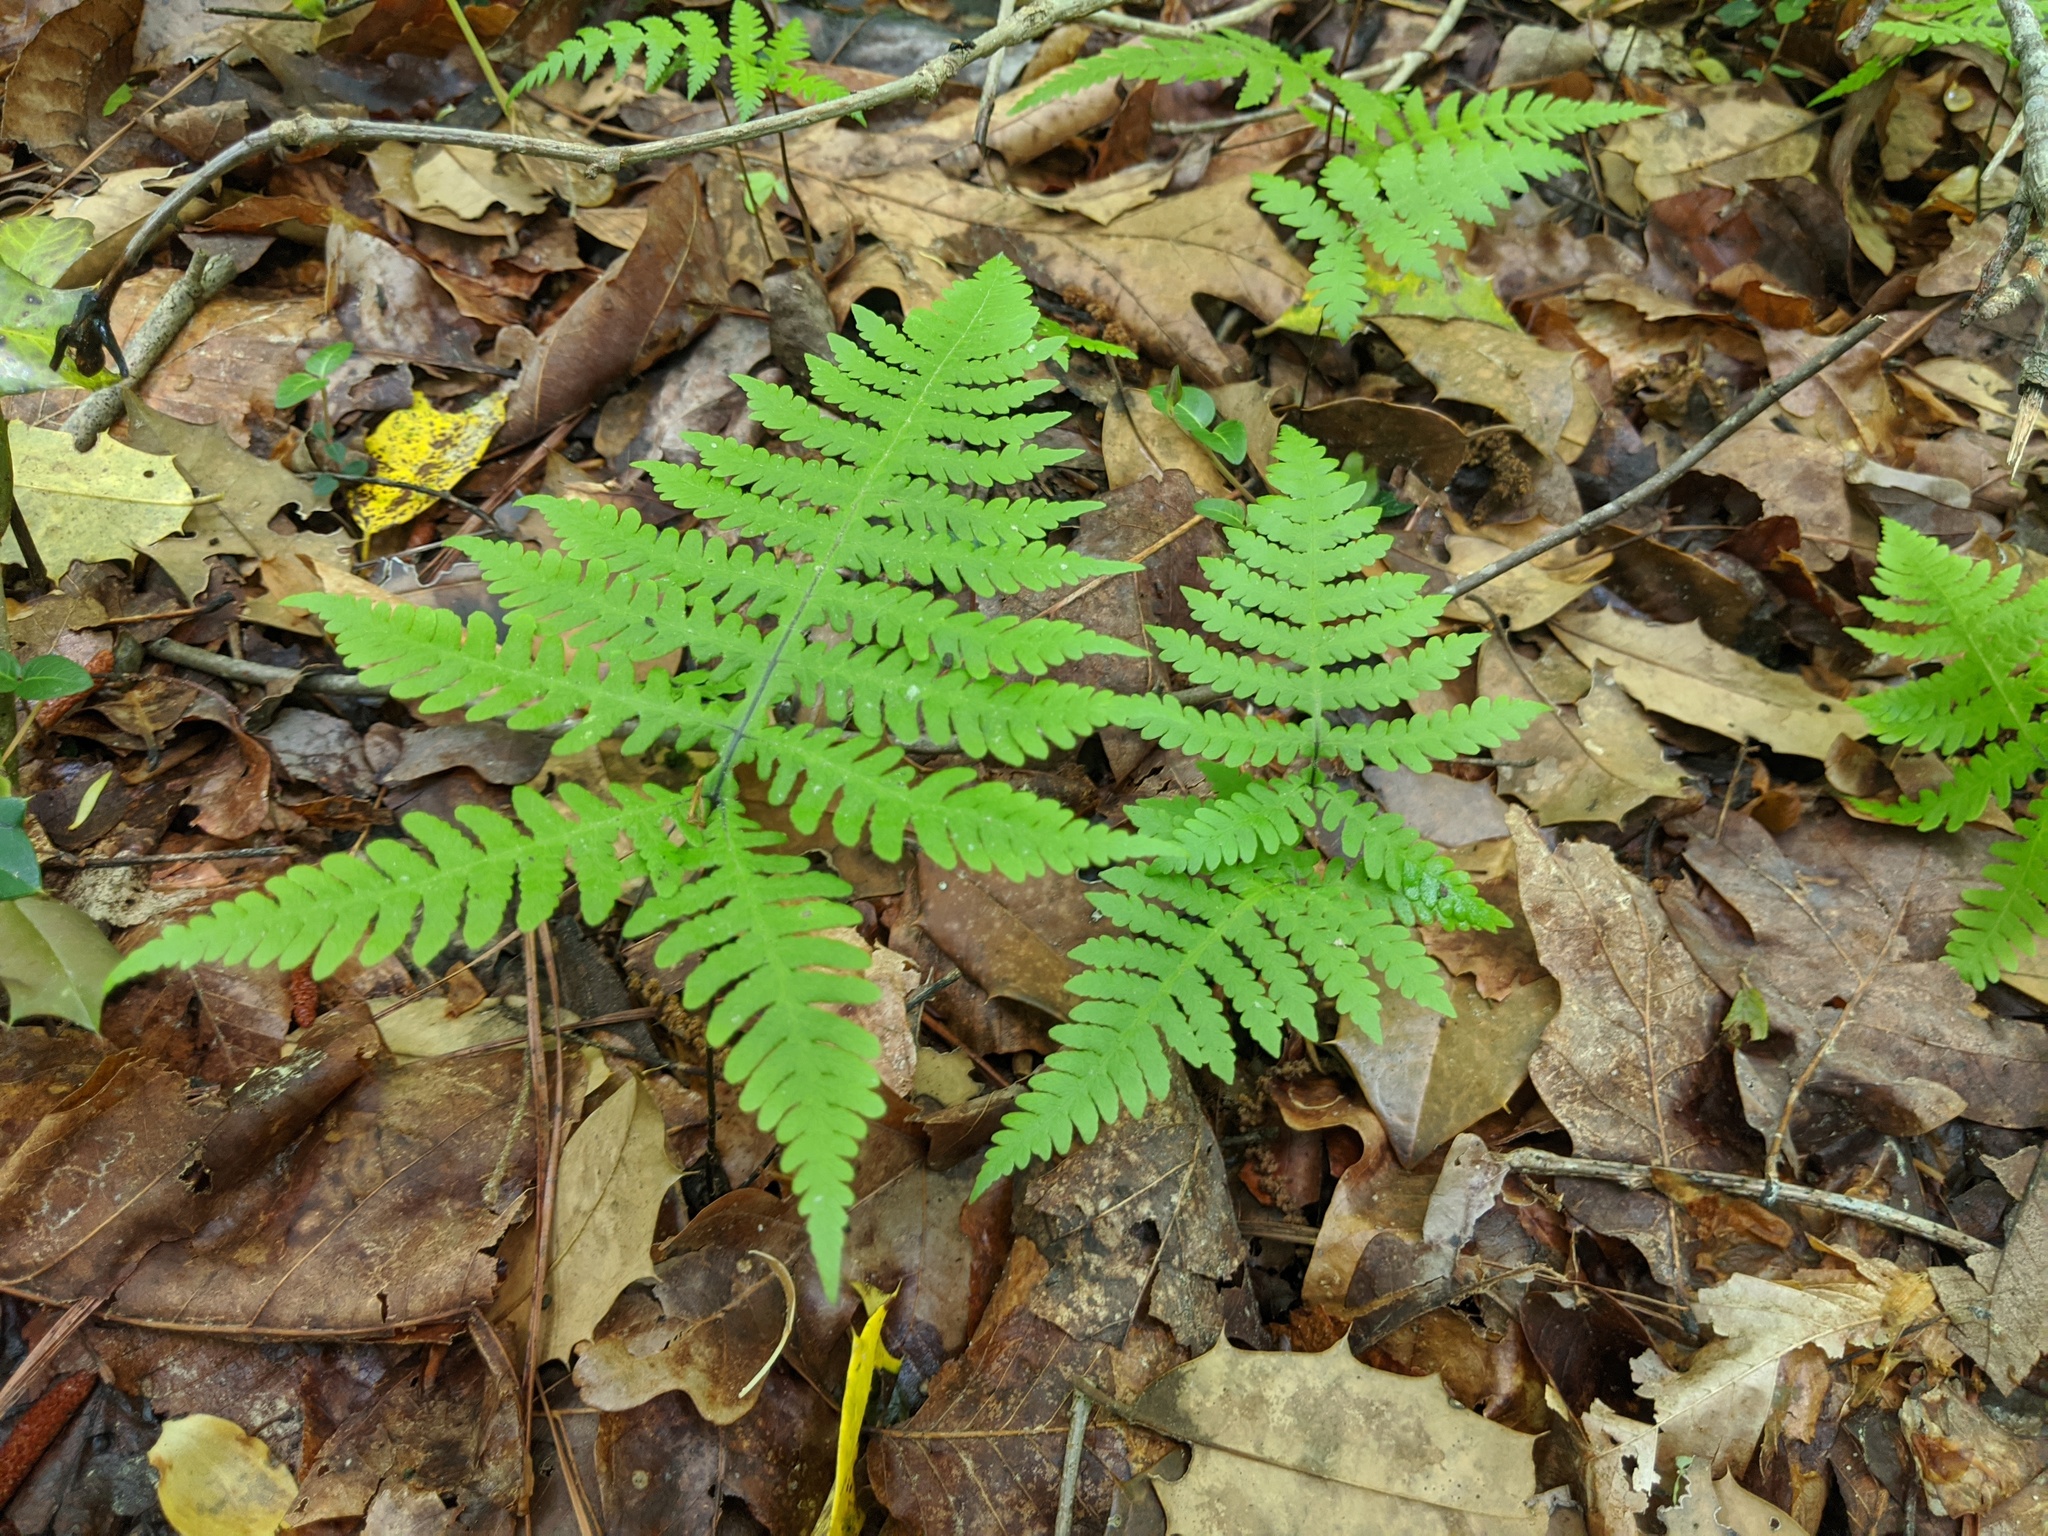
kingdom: Plantae
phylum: Tracheophyta
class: Polypodiopsida
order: Polypodiales
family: Thelypteridaceae
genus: Phegopteris
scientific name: Phegopteris hexagonoptera
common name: Broad beech fern
